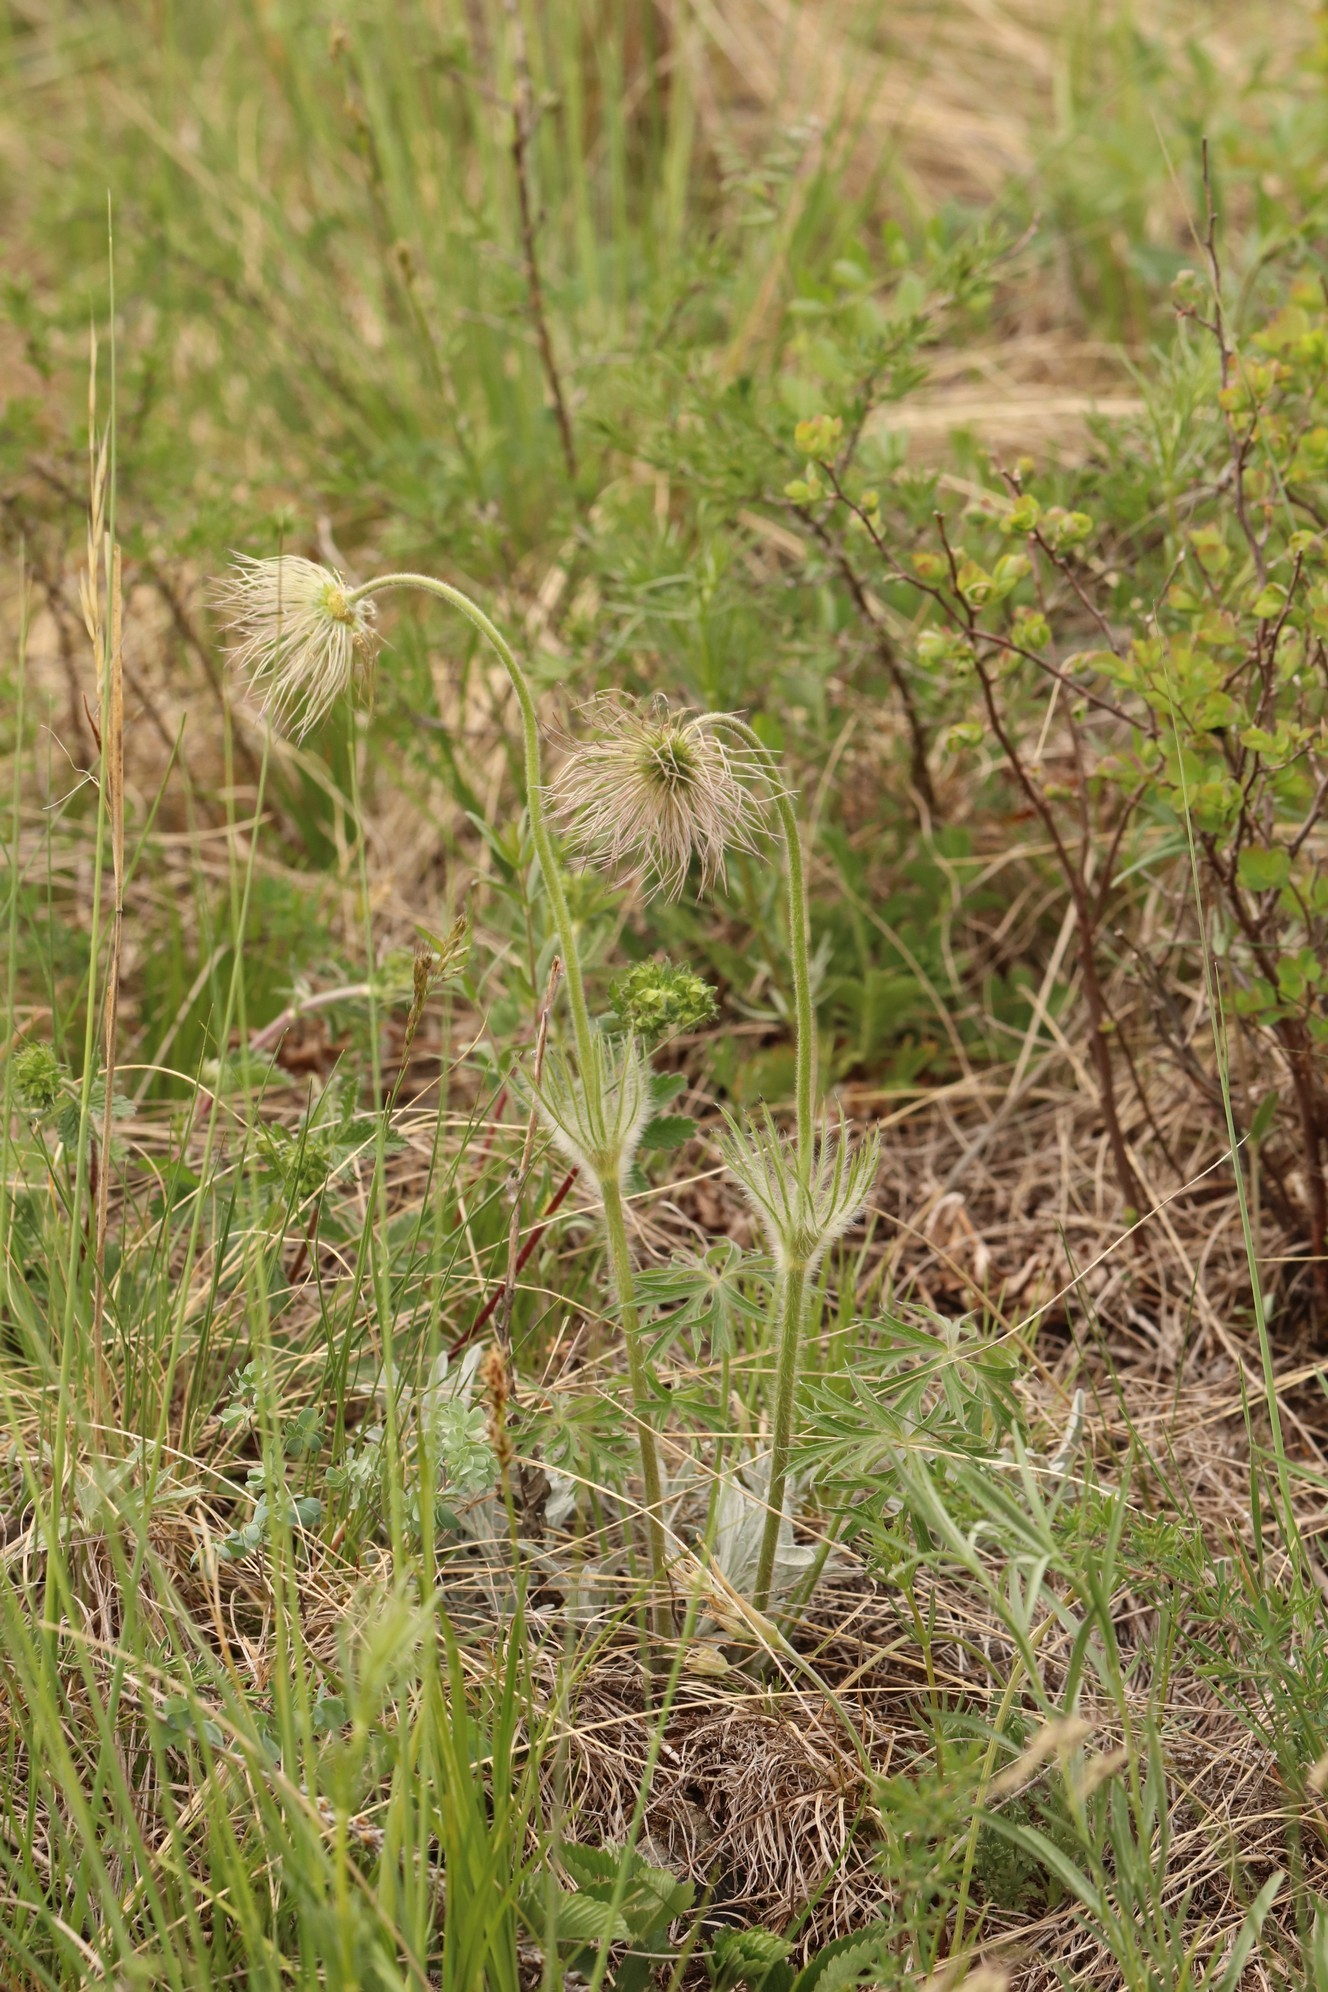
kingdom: Plantae
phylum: Tracheophyta
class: Magnoliopsida
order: Ranunculales
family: Ranunculaceae
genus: Pulsatilla
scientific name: Pulsatilla patens
